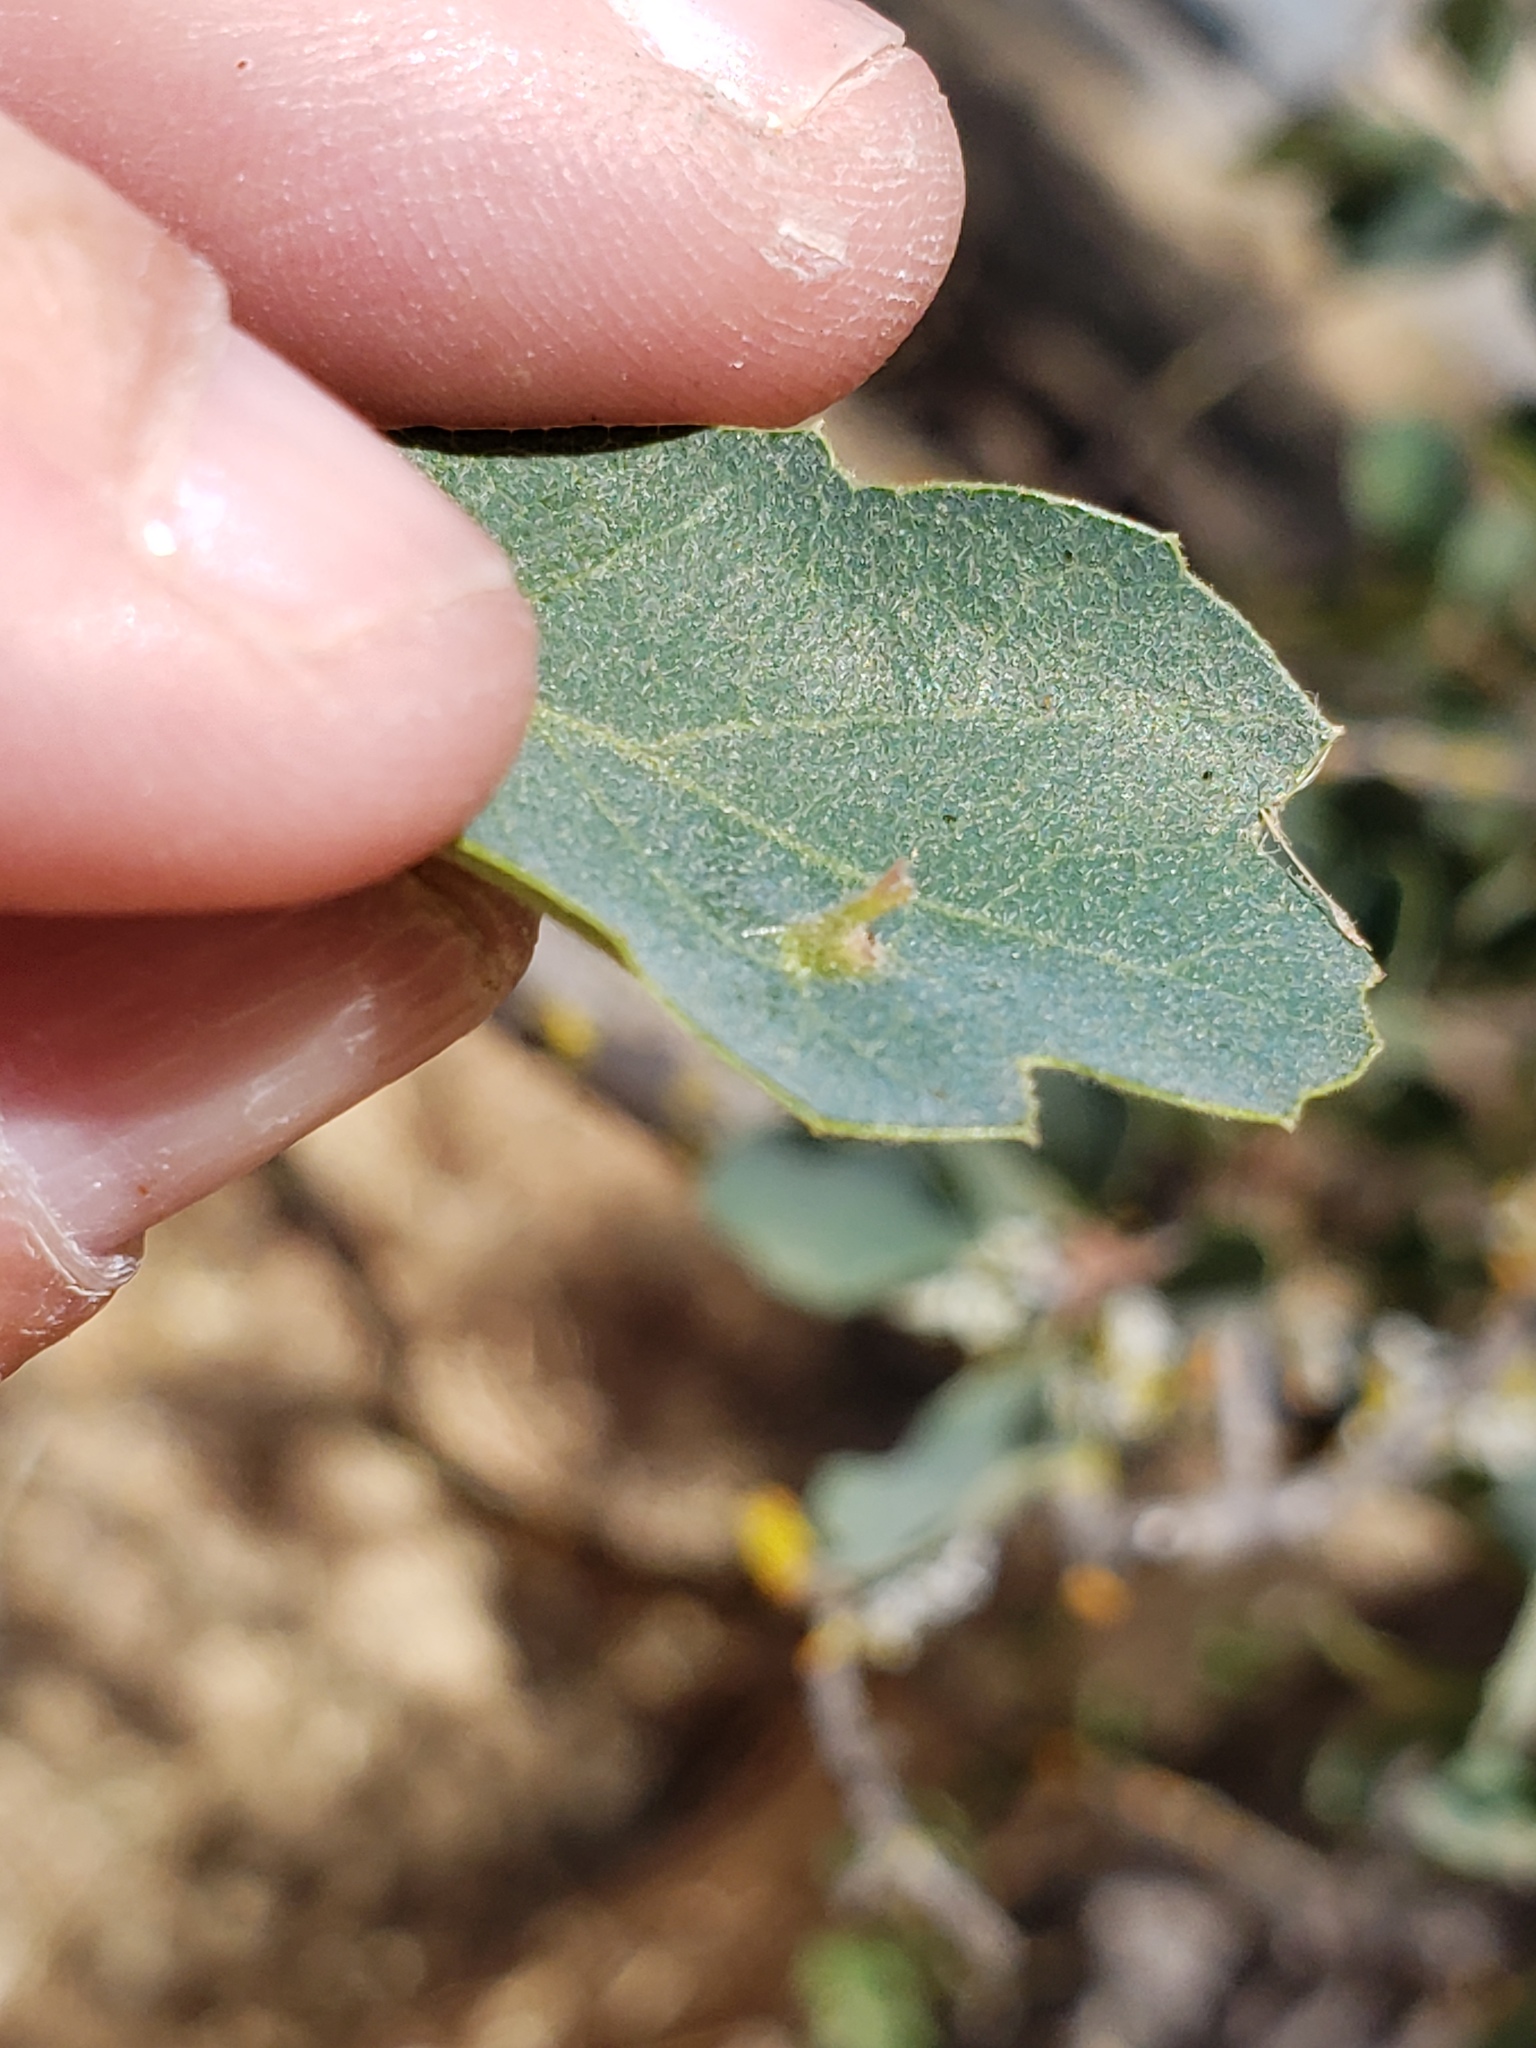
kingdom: Animalia
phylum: Arthropoda
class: Insecta
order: Hymenoptera
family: Cynipidae
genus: Andricus
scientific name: Andricus
